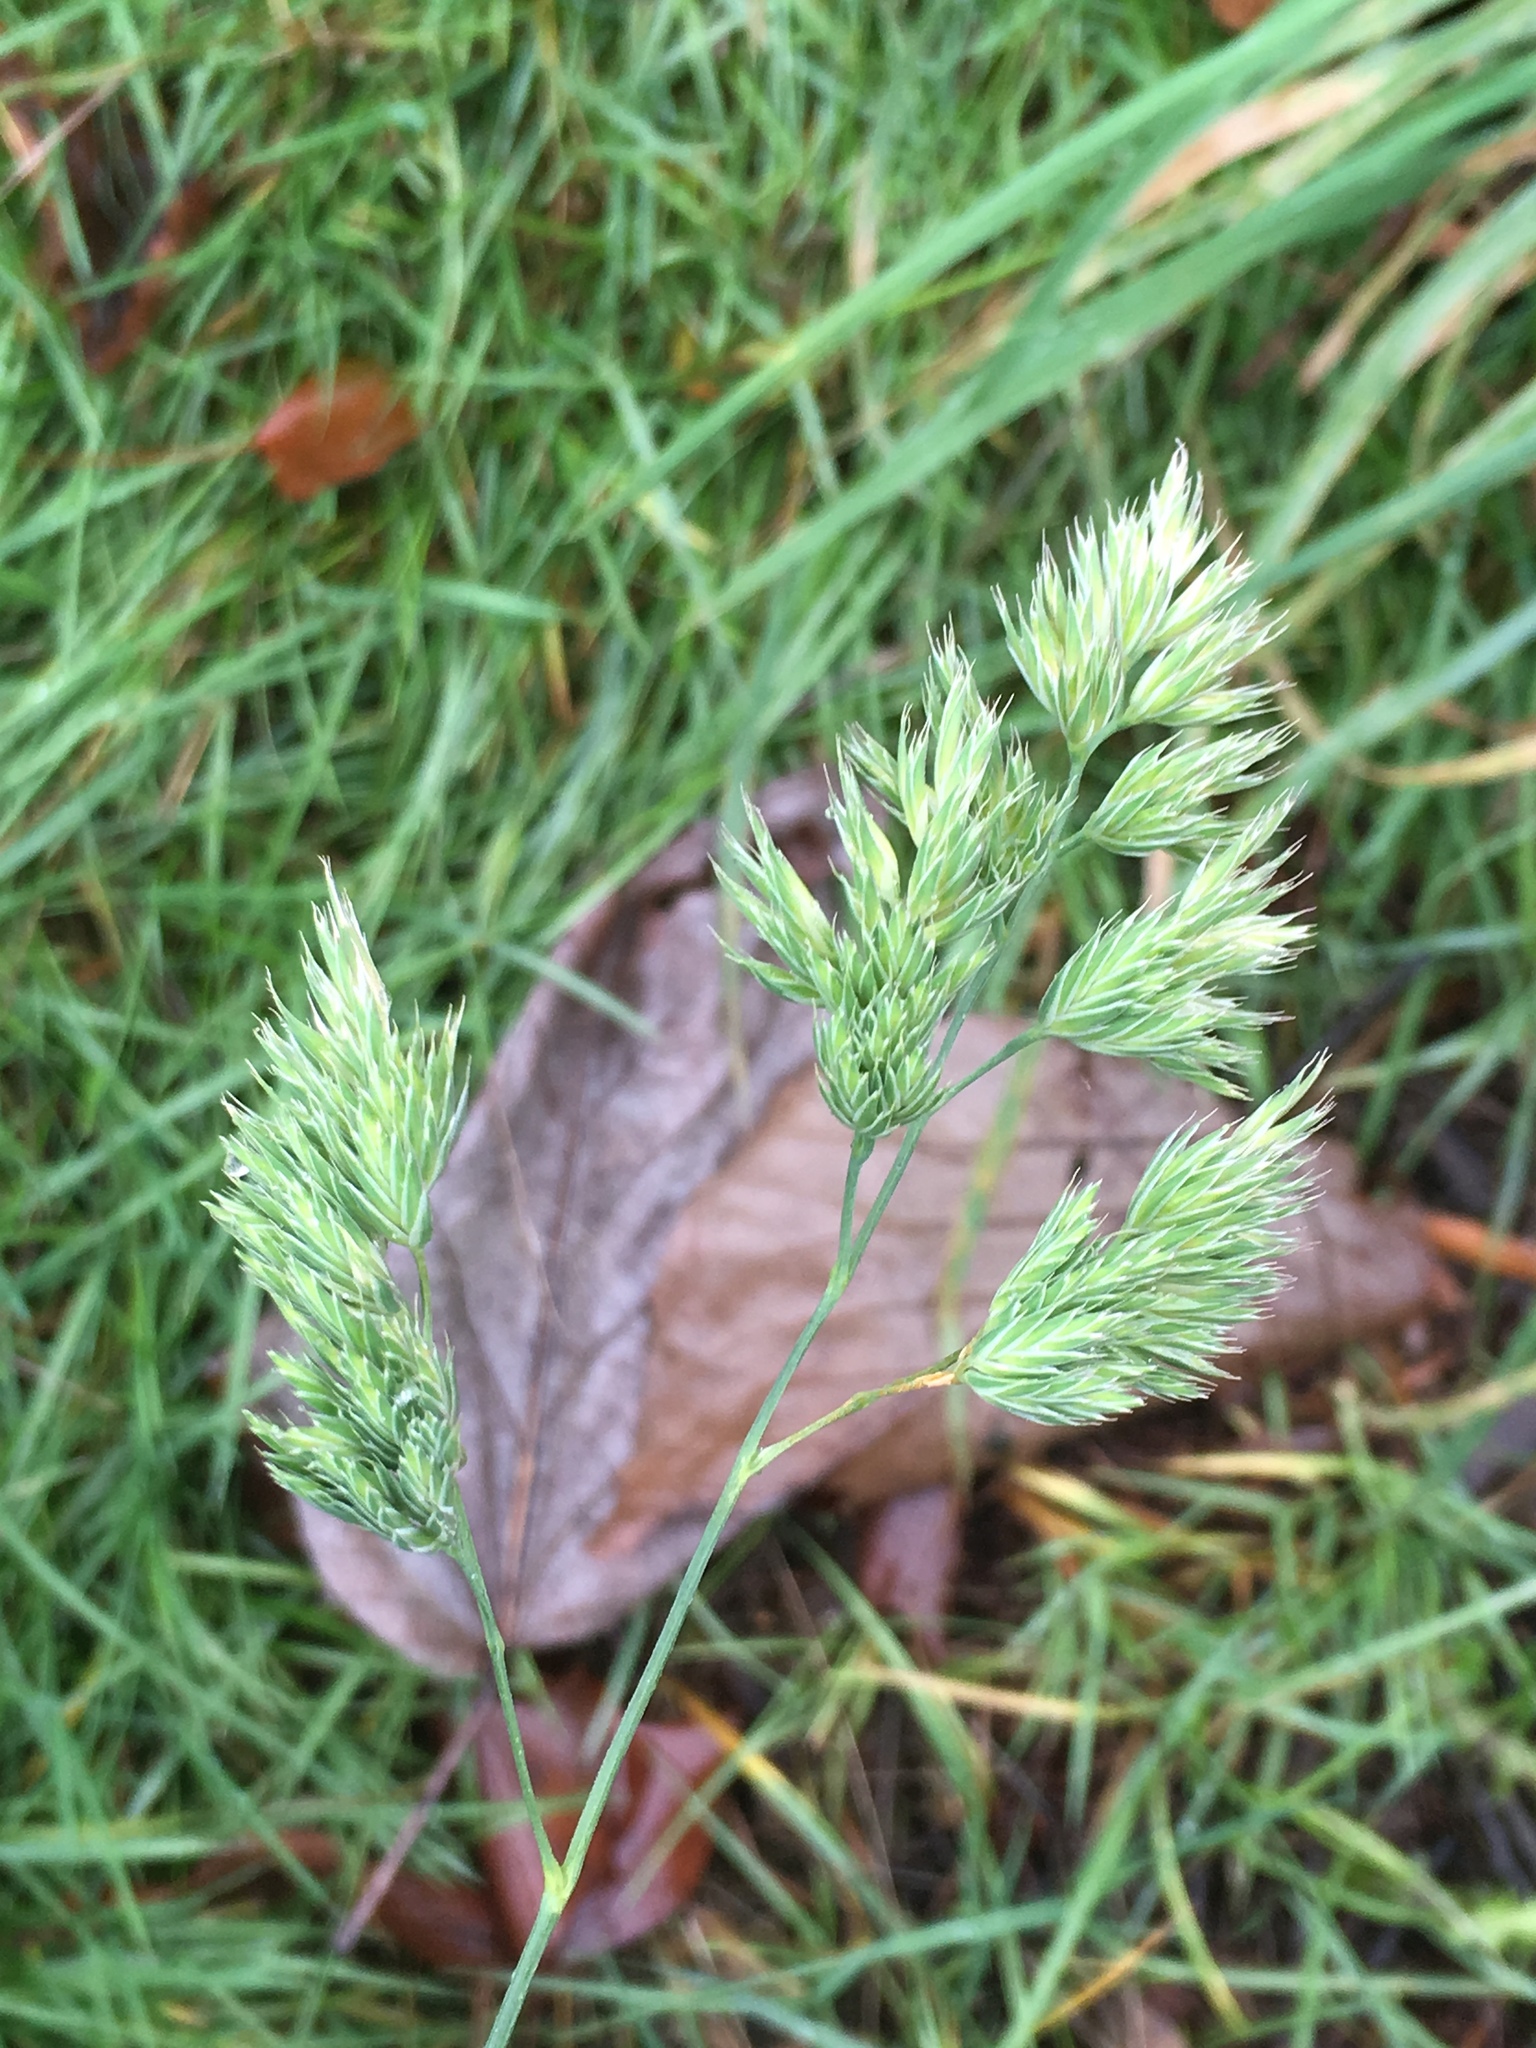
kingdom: Plantae
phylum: Tracheophyta
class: Liliopsida
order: Poales
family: Poaceae
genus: Dactylis
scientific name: Dactylis glomerata
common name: Orchardgrass
